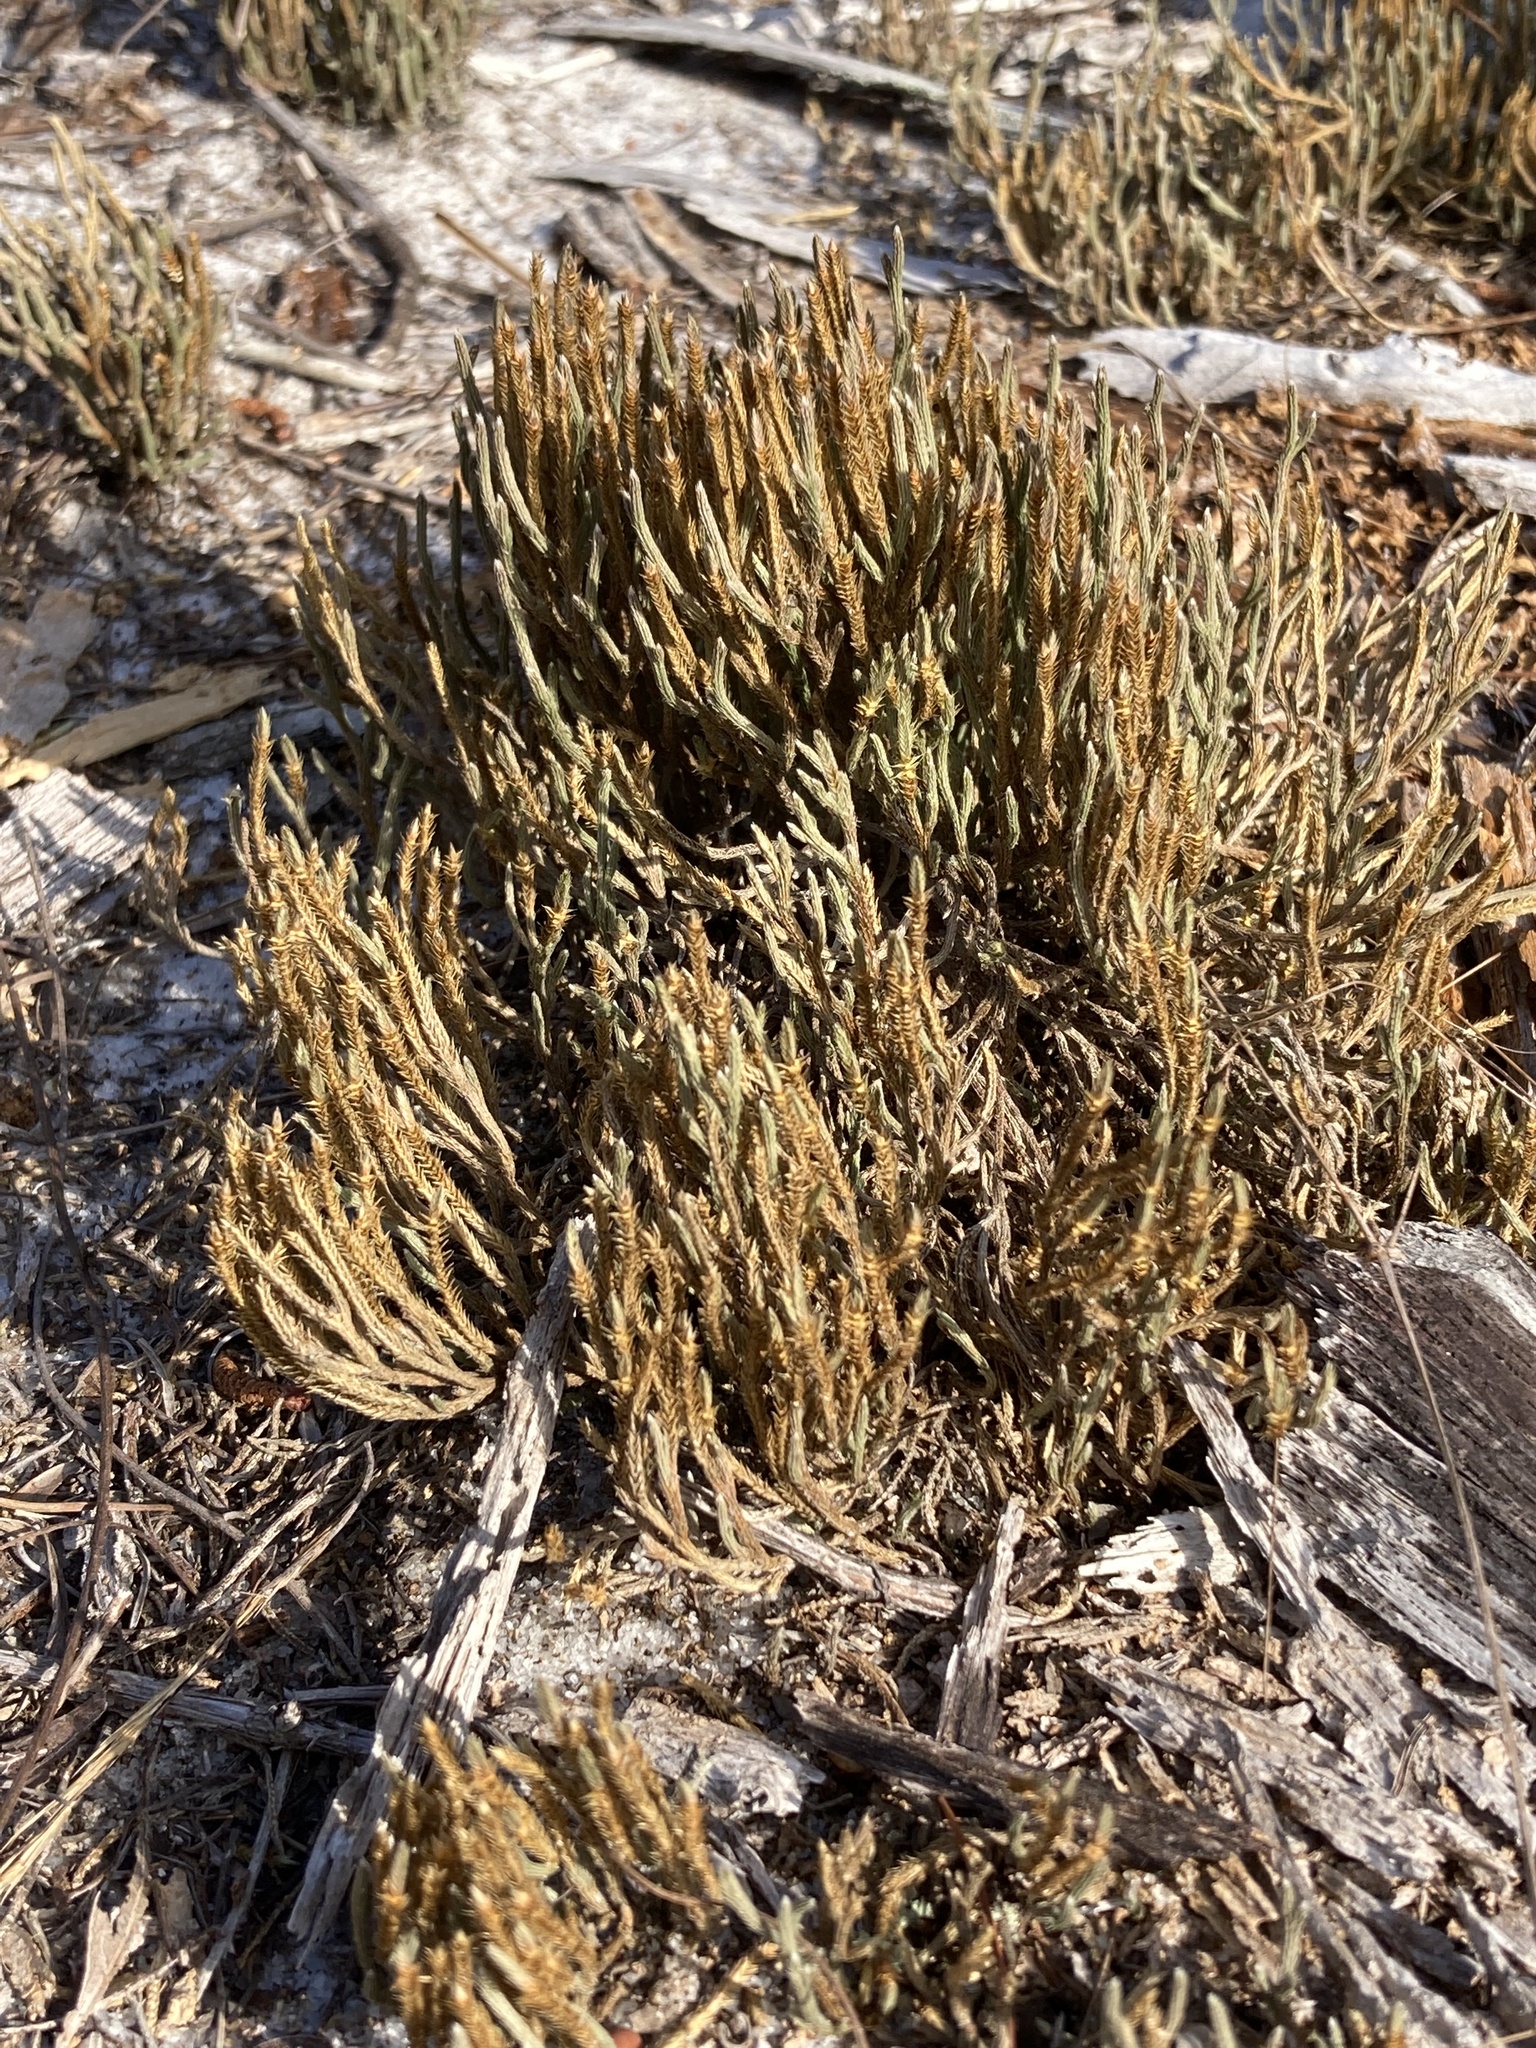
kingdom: Plantae
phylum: Tracheophyta
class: Lycopodiopsida
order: Selaginellales
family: Selaginellaceae
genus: Selaginella
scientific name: Selaginella arenicola
